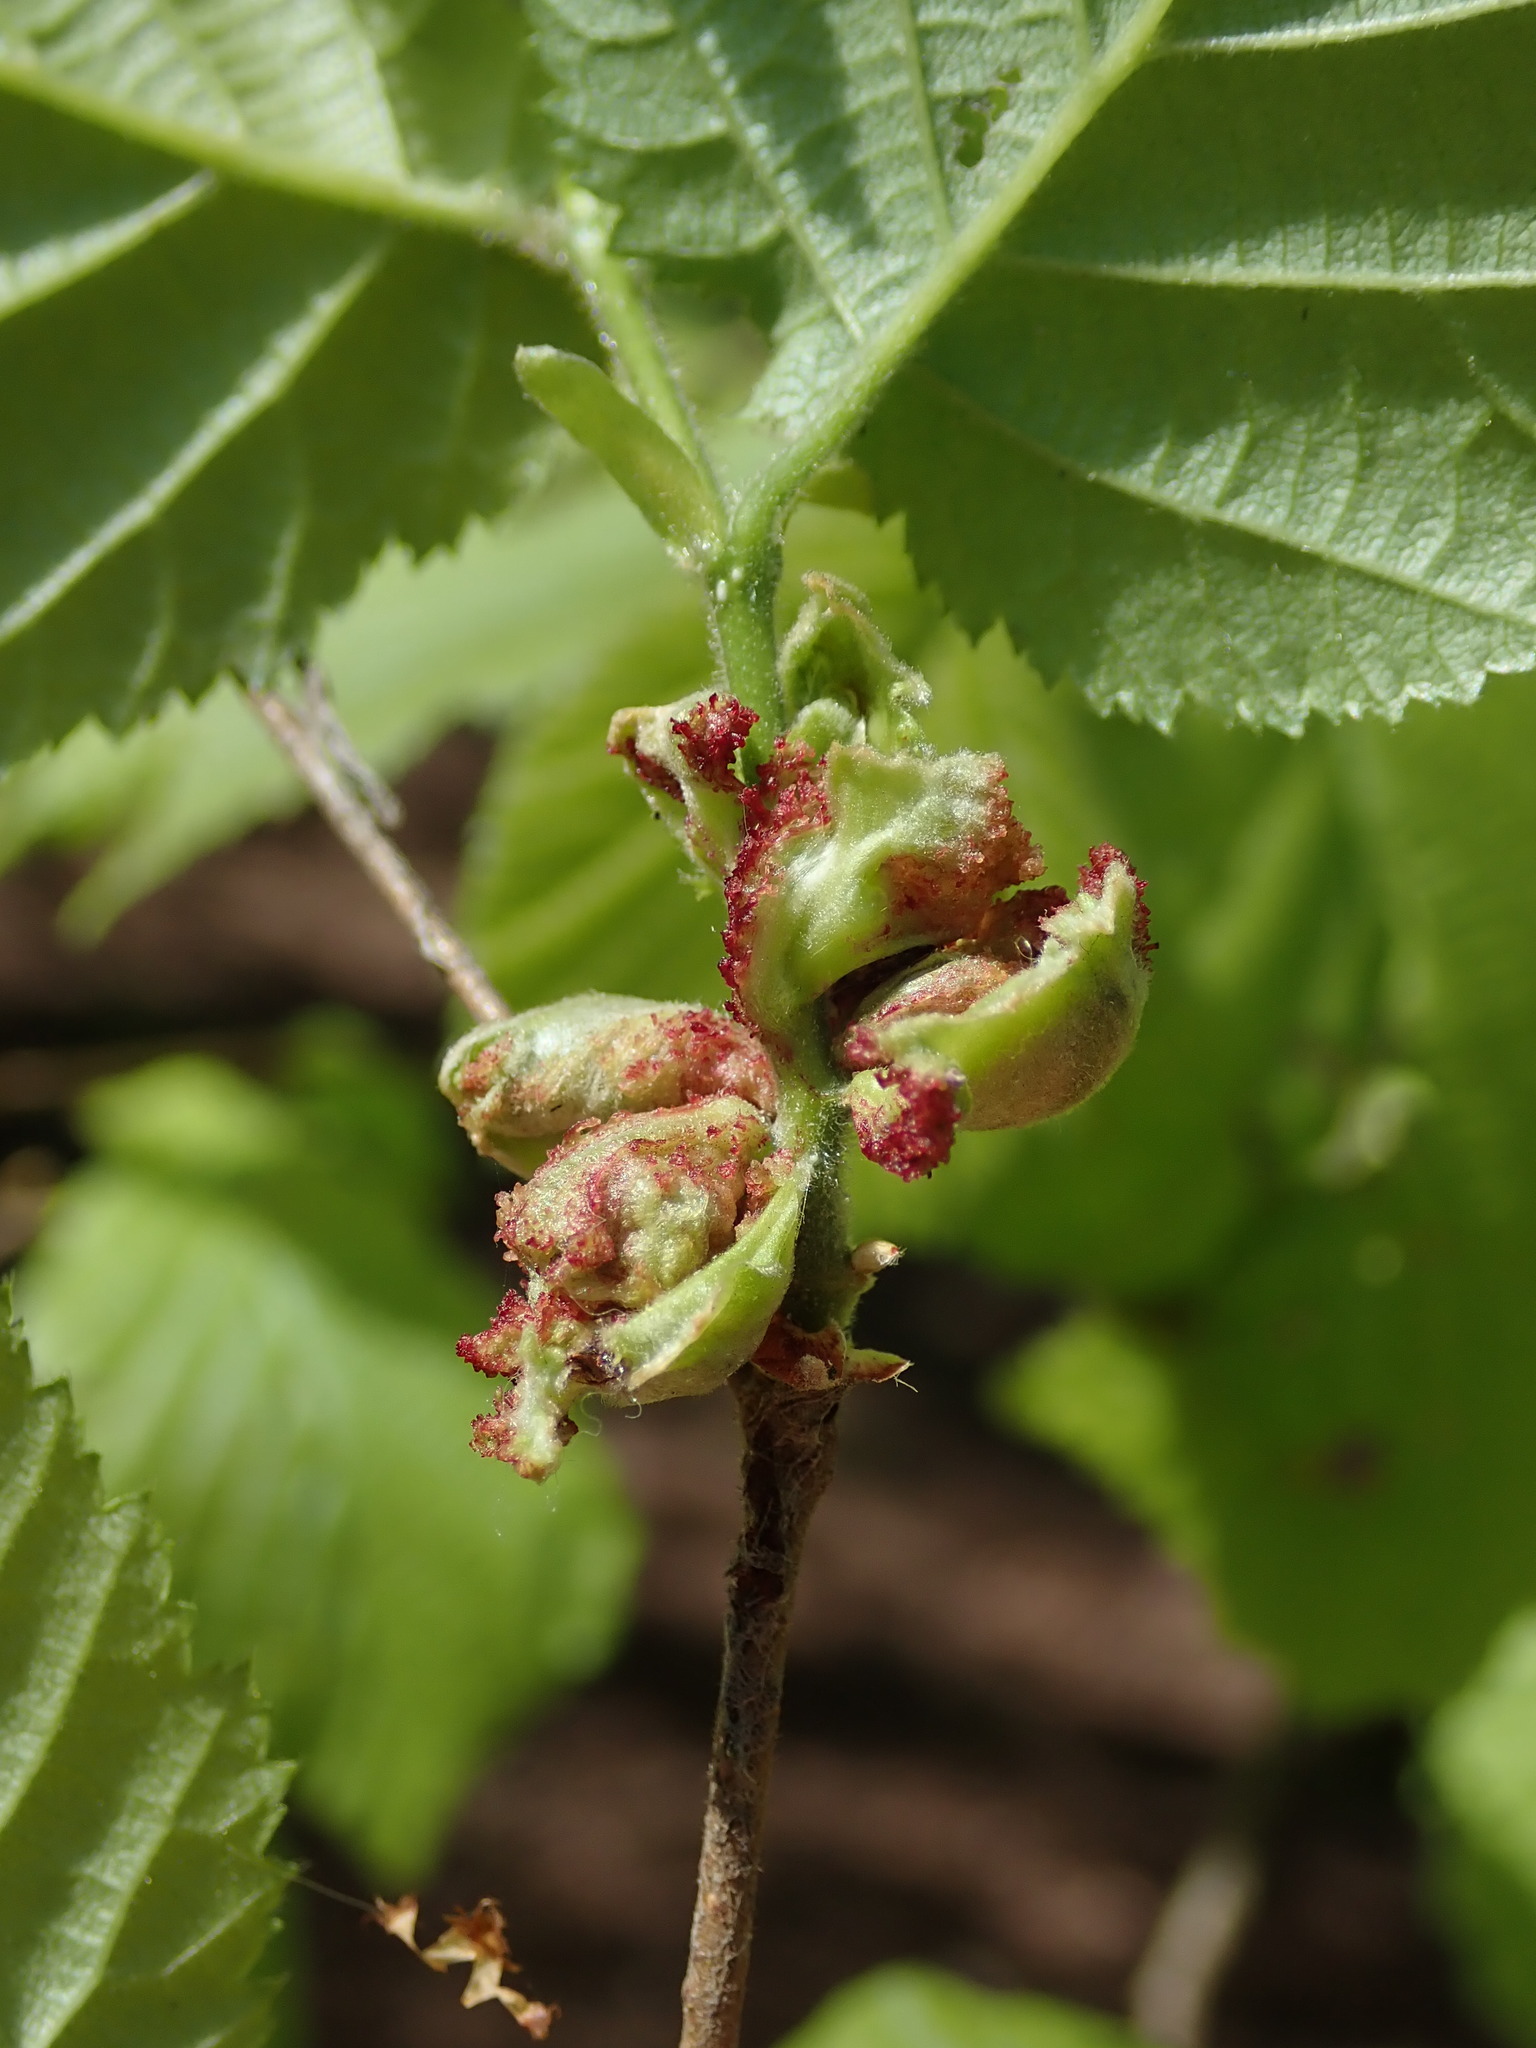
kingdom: Animalia
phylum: Arthropoda
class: Arachnida
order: Trombidiformes
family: Phytoptidae
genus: Phytoptus
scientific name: Phytoptus avellanae
